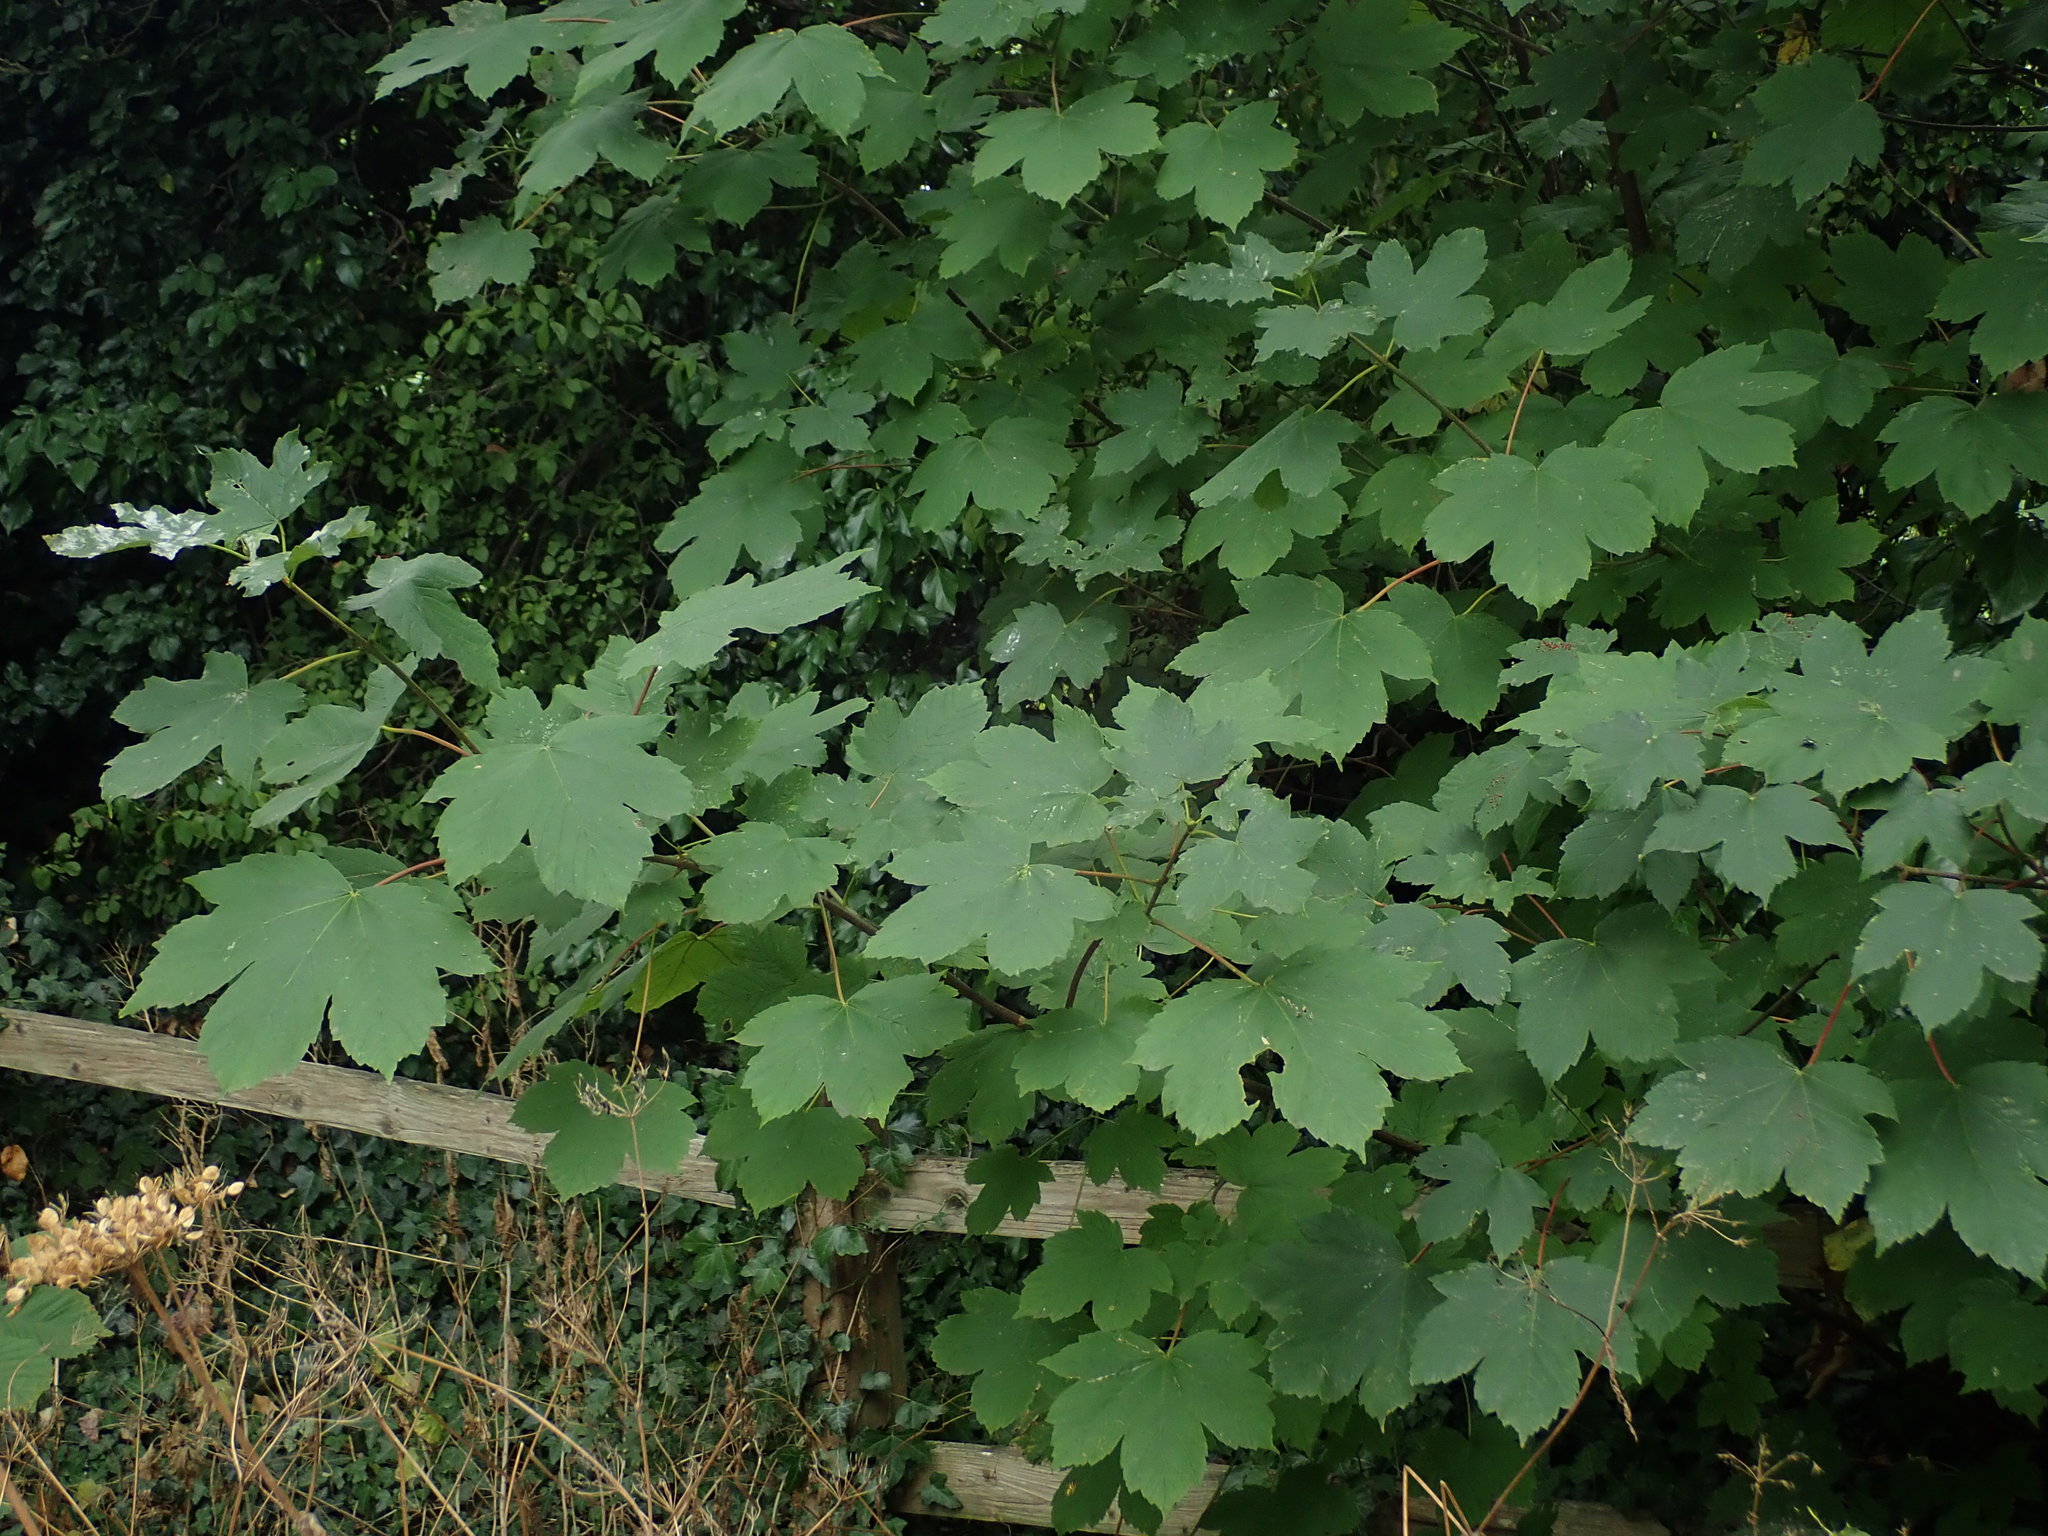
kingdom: Plantae
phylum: Tracheophyta
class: Magnoliopsida
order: Sapindales
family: Sapindaceae
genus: Acer
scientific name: Acer pseudoplatanus
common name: Sycamore
